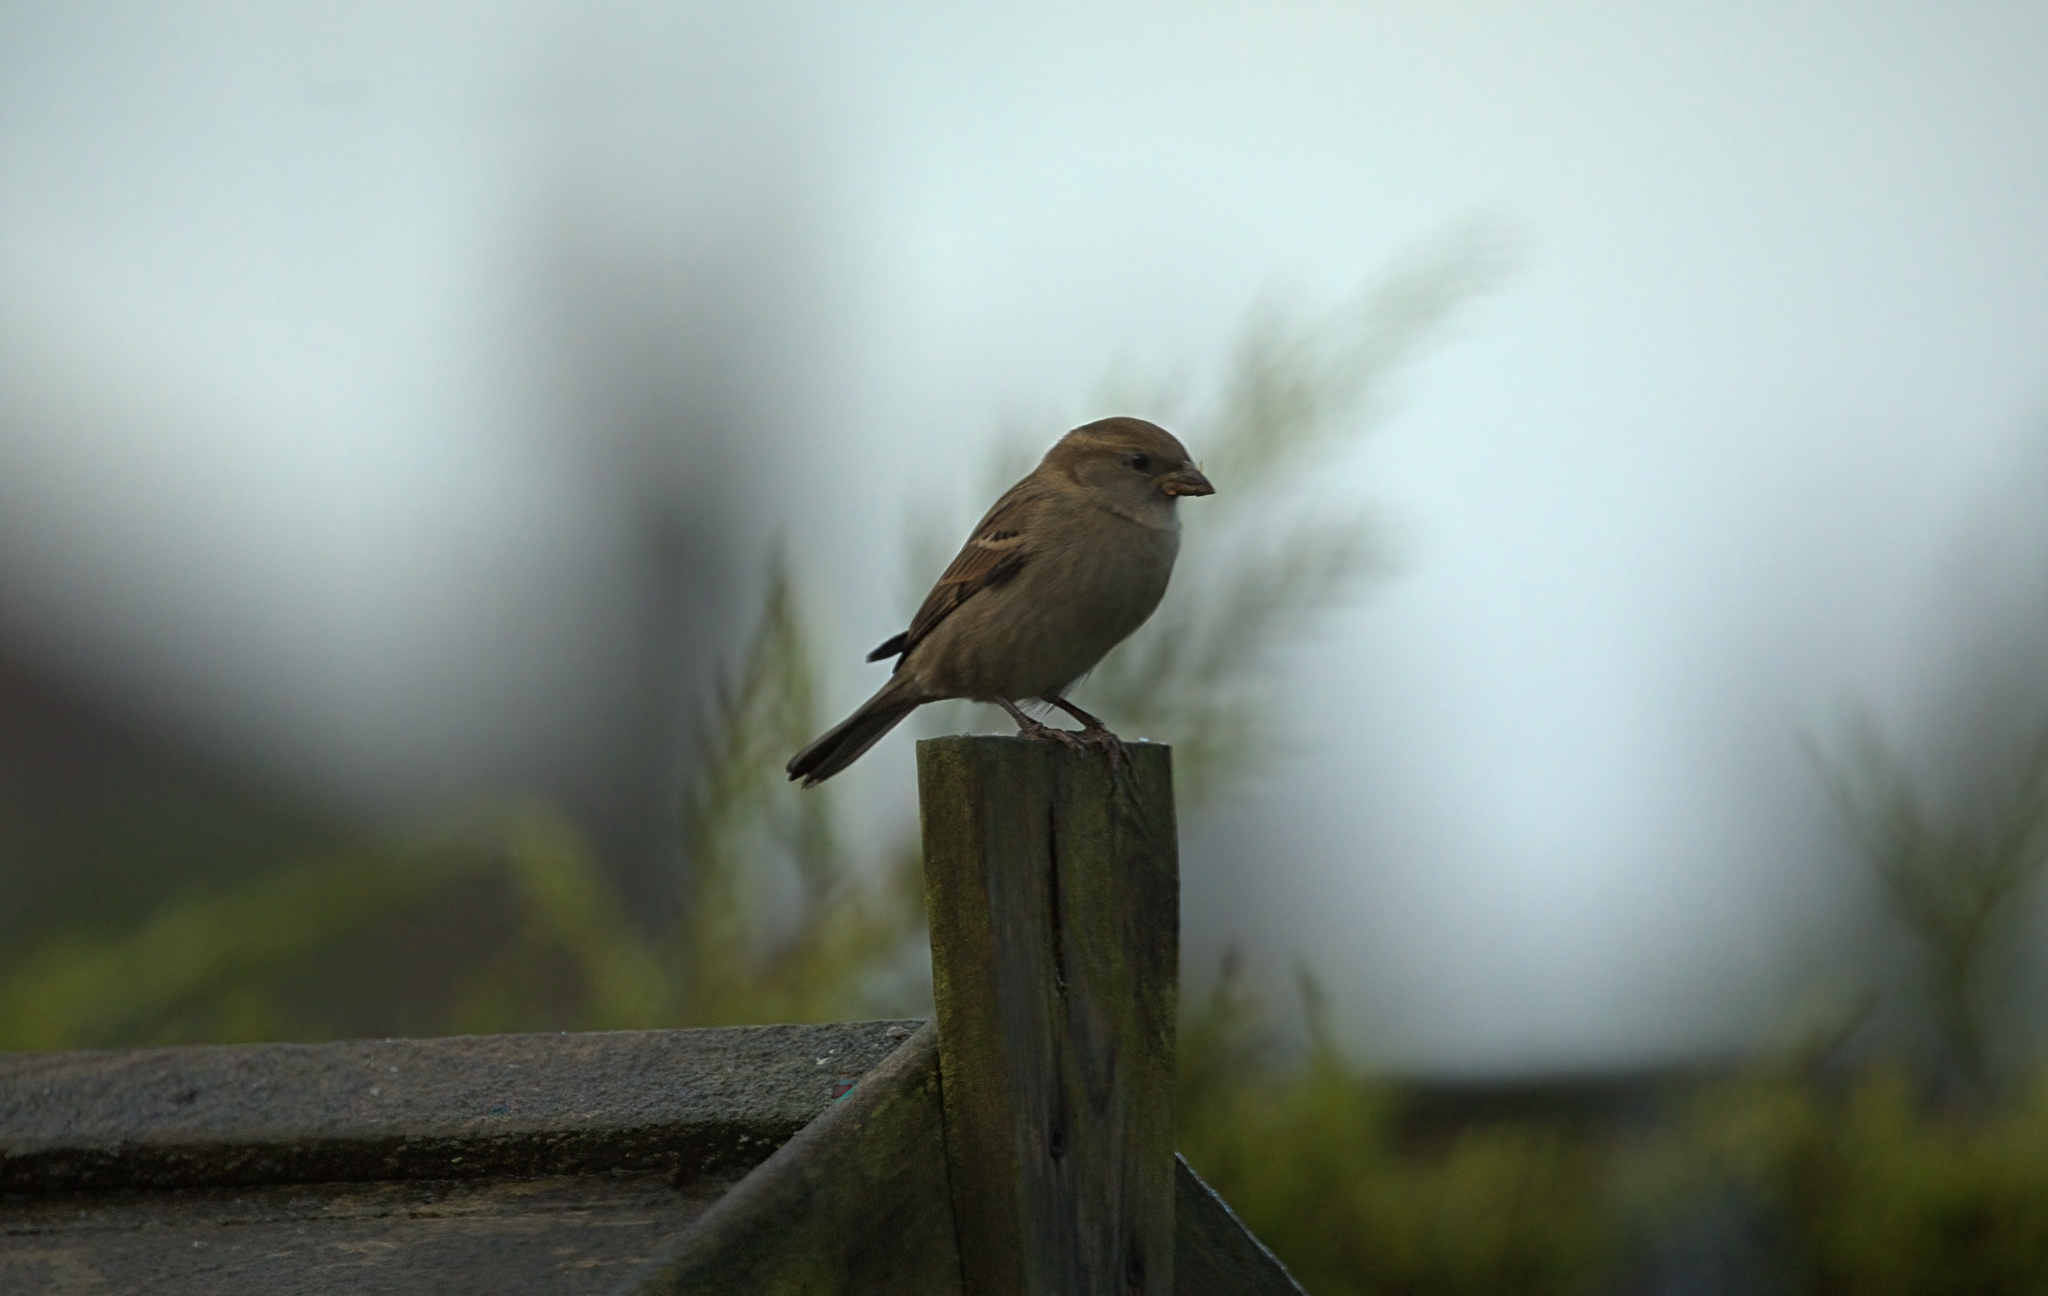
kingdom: Animalia
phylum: Chordata
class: Aves
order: Passeriformes
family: Passeridae
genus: Passer
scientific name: Passer domesticus
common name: House sparrow
